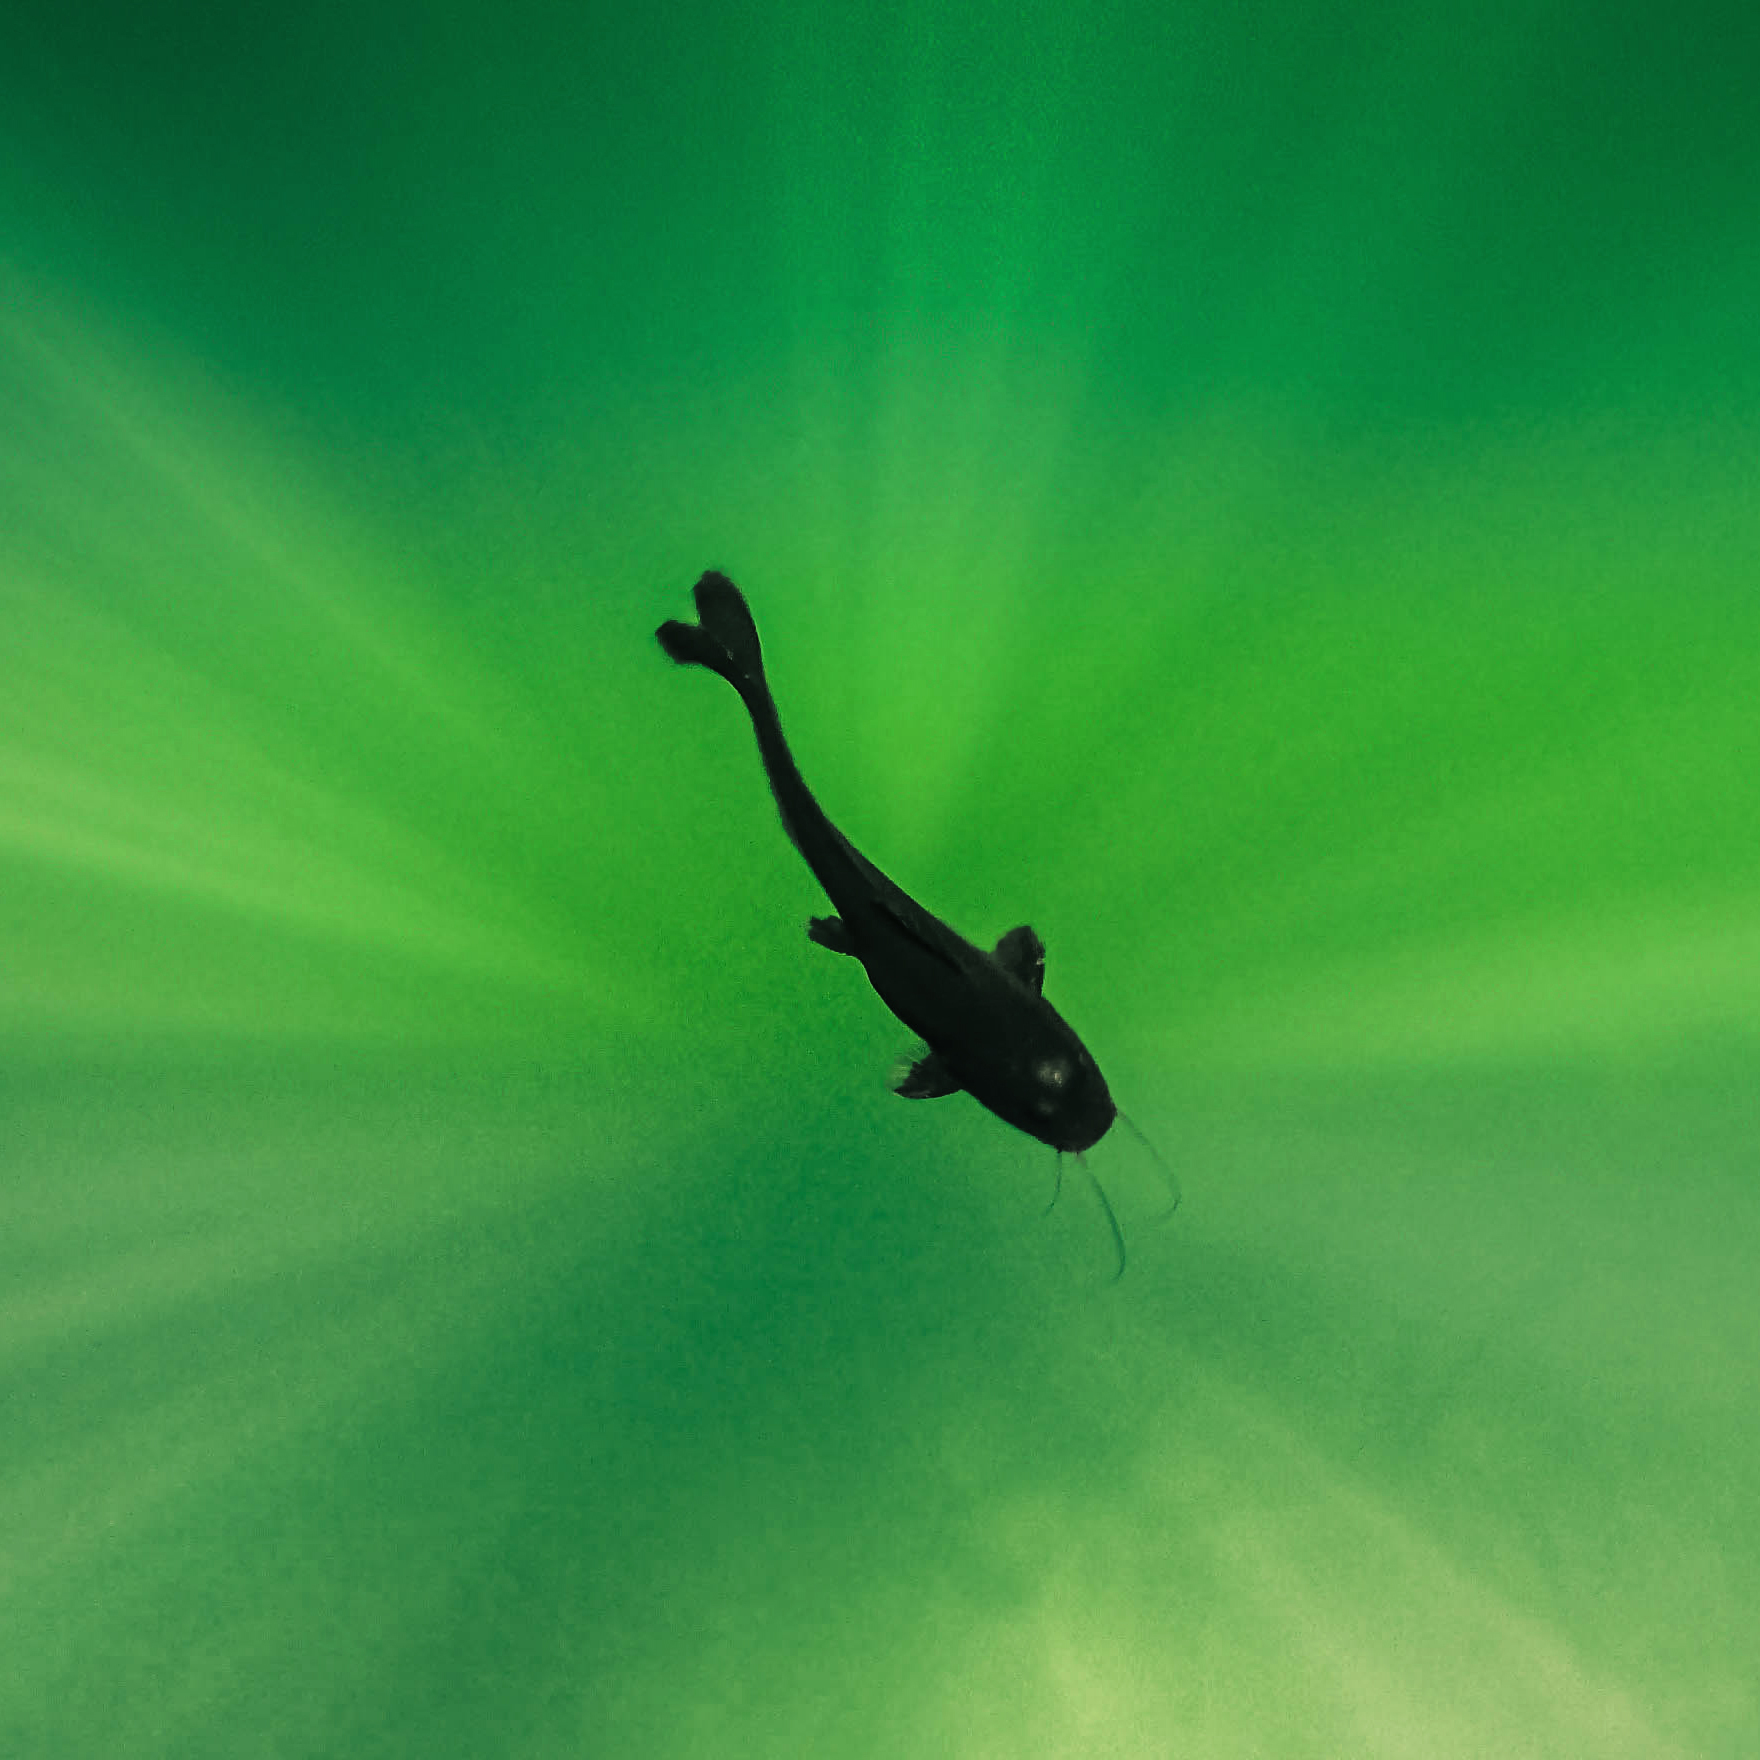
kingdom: Animalia
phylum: Chordata
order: Siluriformes
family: Heptapteridae
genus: Rhamdia
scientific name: Rhamdia guatemalensis
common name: Pale catfish
